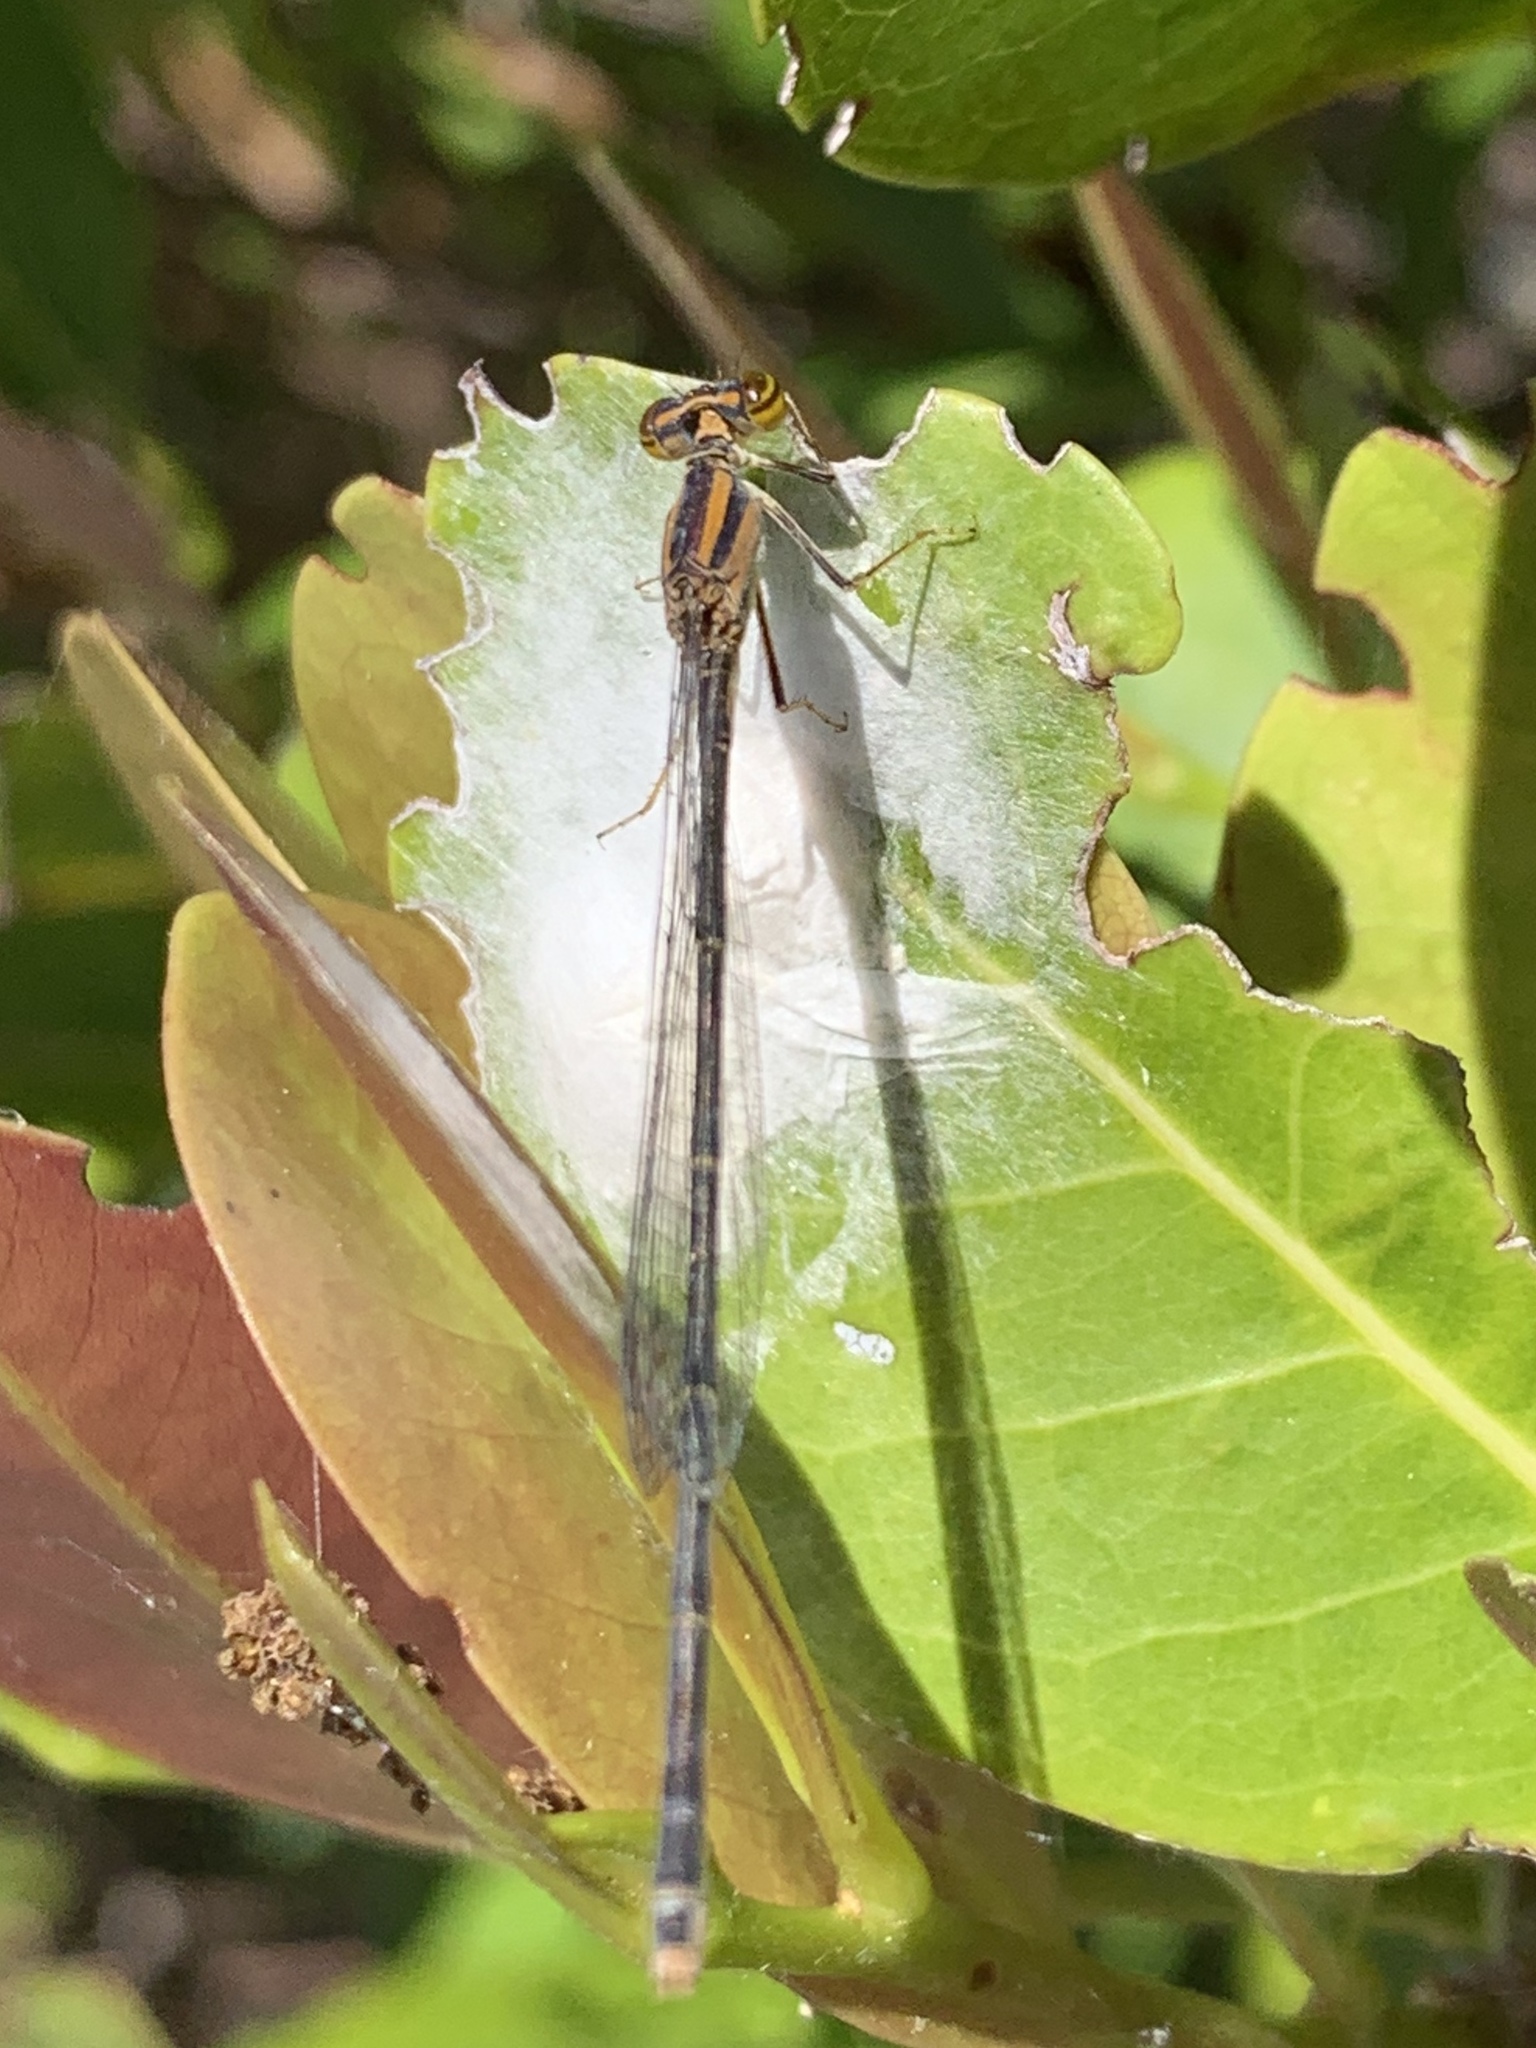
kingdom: Animalia
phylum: Arthropoda
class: Insecta
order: Odonata
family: Coenagrionidae
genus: Enallagma
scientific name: Enallagma pollutum
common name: Florida bluet
